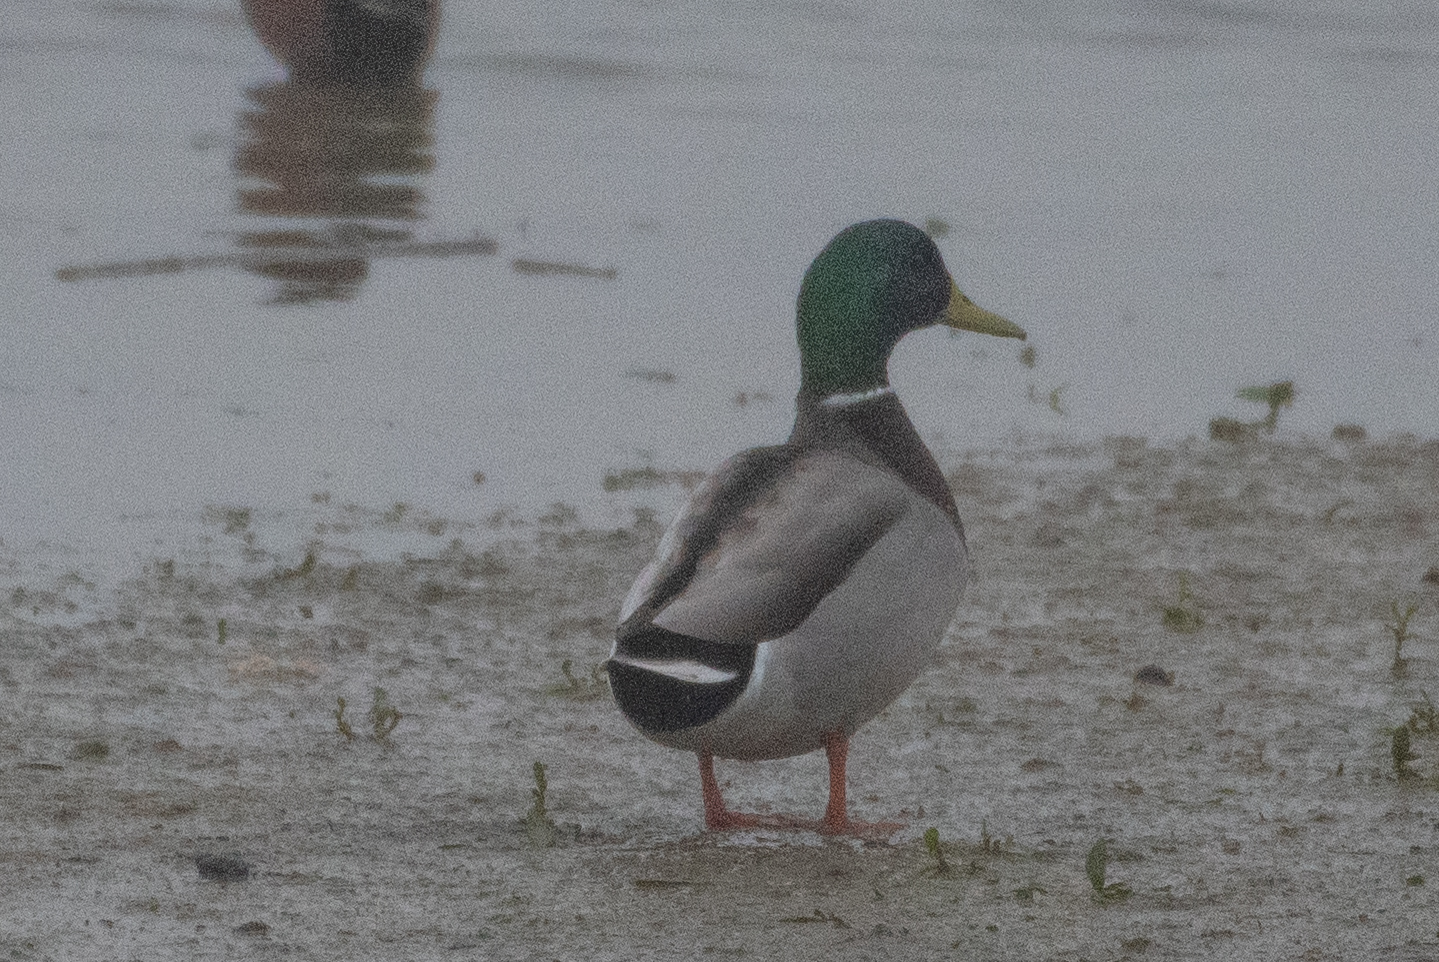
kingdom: Animalia
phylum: Chordata
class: Aves
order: Anseriformes
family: Anatidae
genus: Anas
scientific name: Anas platyrhynchos
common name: Mallard
